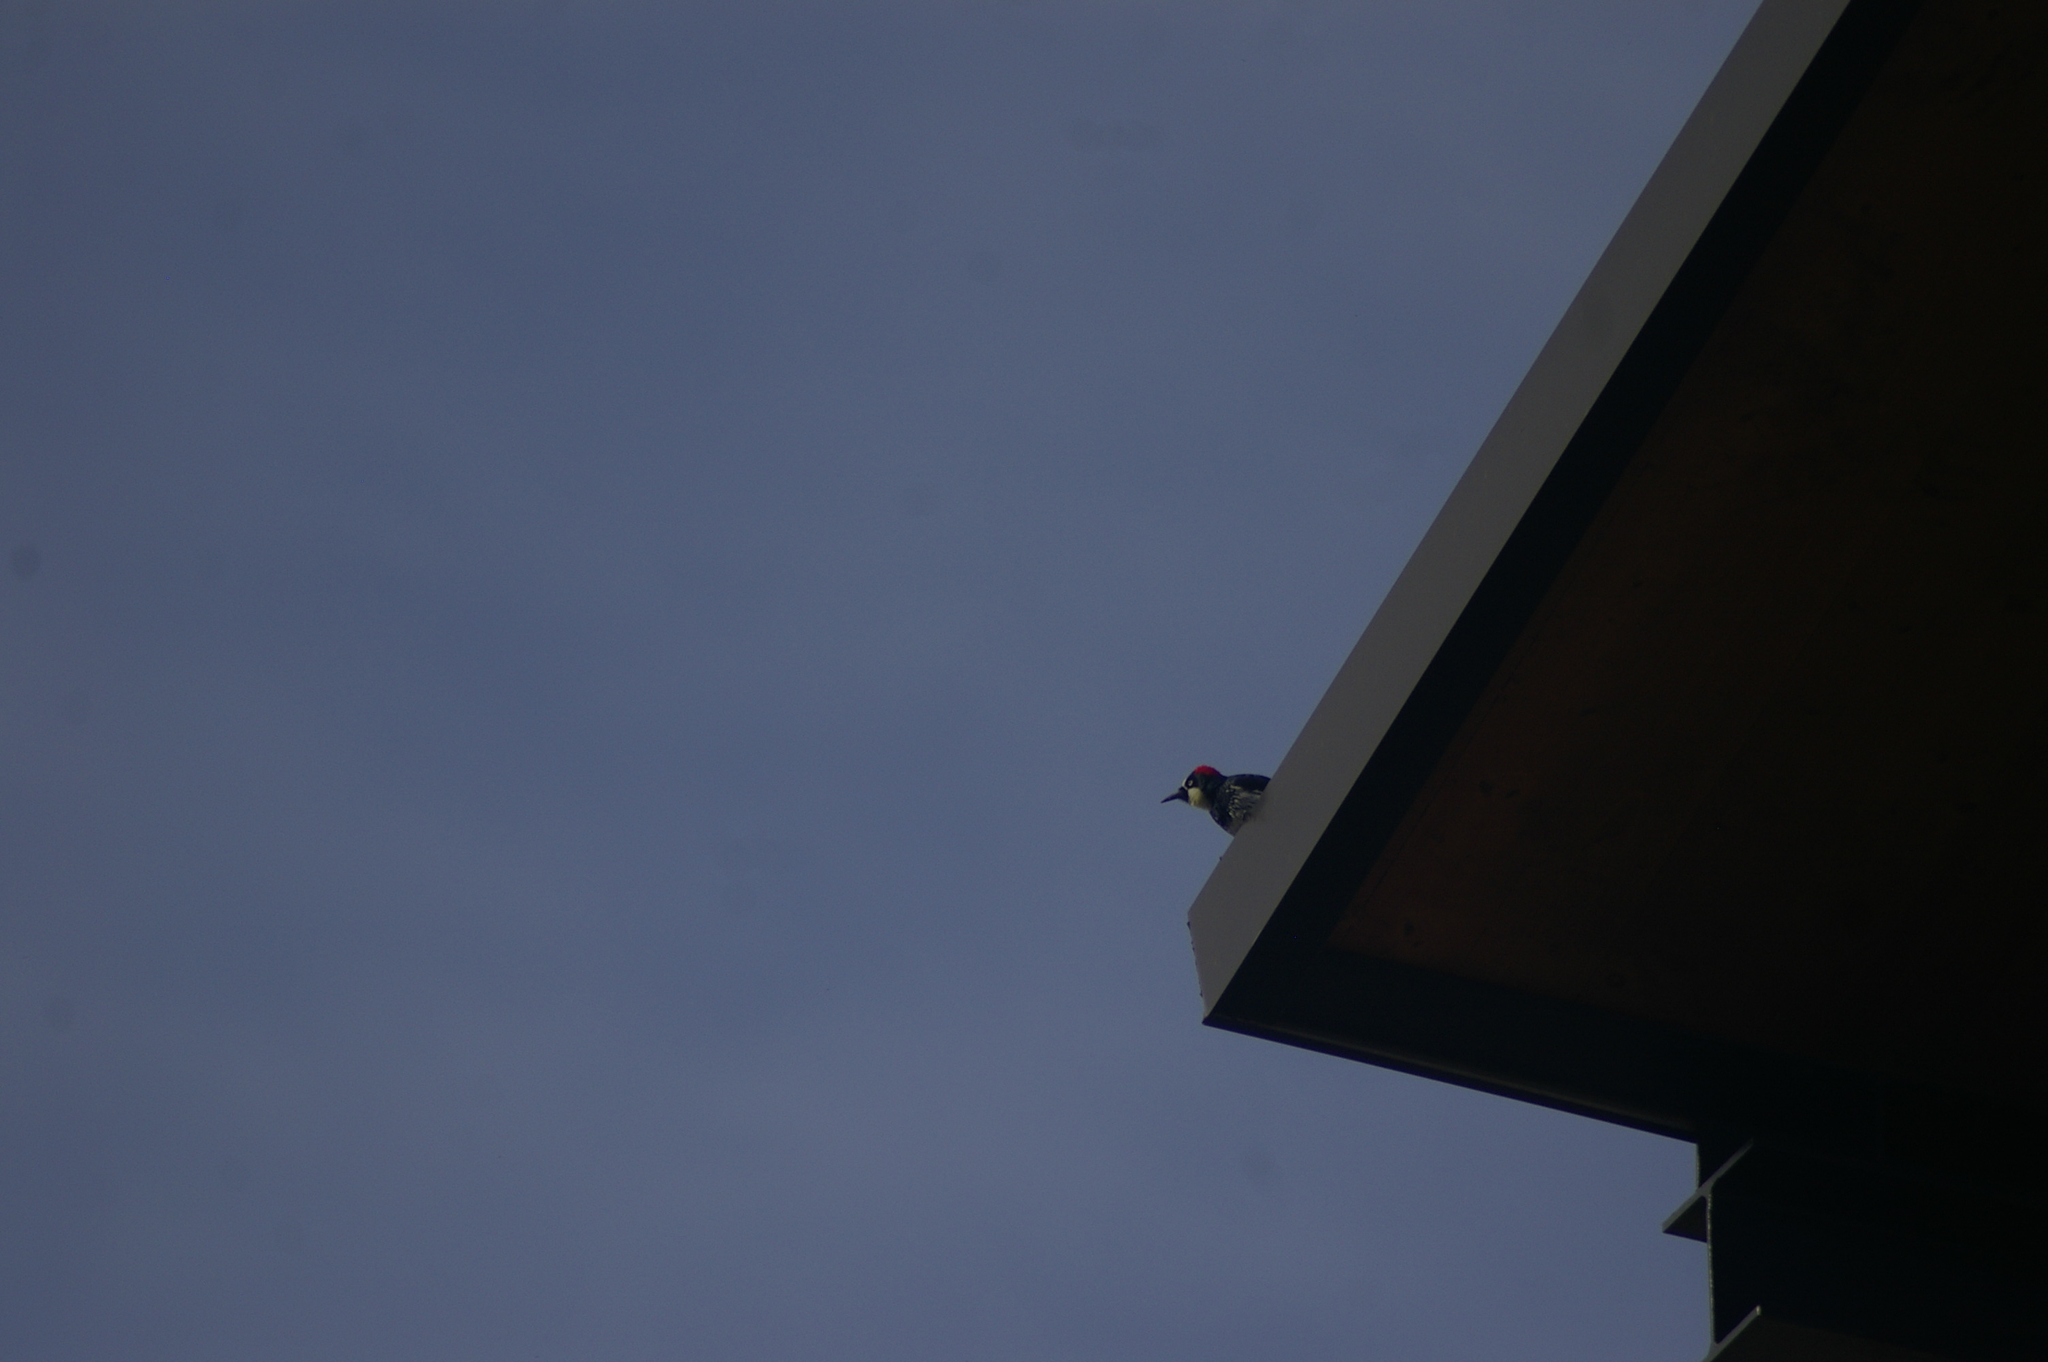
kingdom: Animalia
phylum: Chordata
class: Aves
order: Piciformes
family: Picidae
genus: Melanerpes
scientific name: Melanerpes formicivorus
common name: Acorn woodpecker
